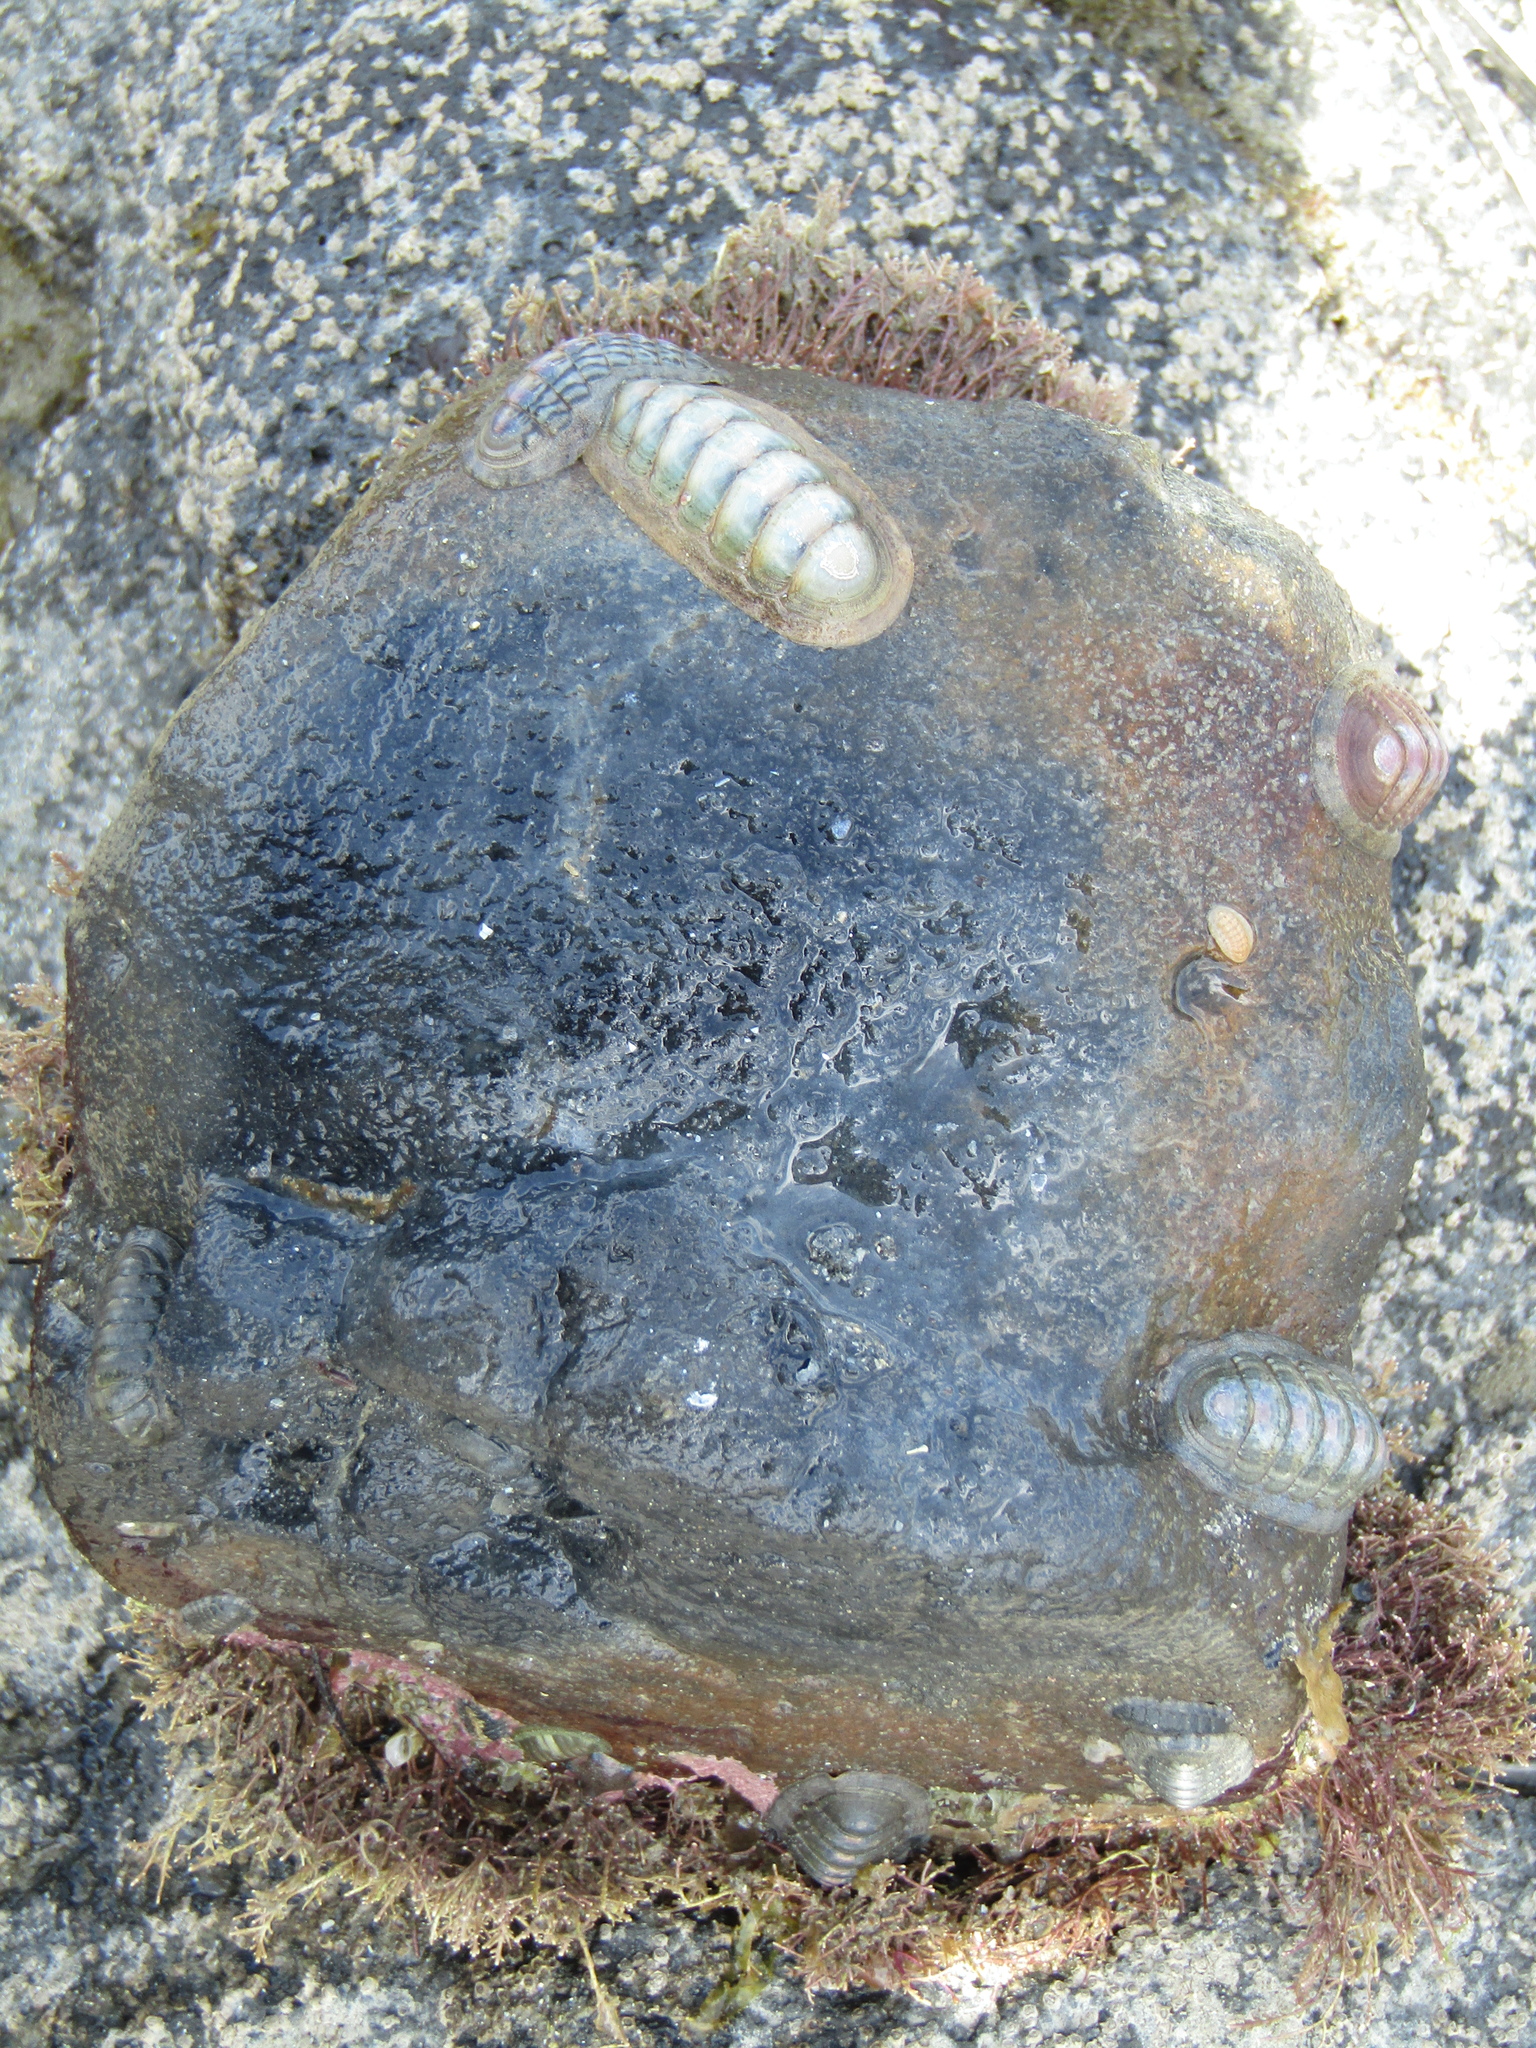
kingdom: Animalia
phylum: Mollusca
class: Polyplacophora
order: Chitonida
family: Ischnochitonidae
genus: Ischnochiton
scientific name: Ischnochiton maorianus
